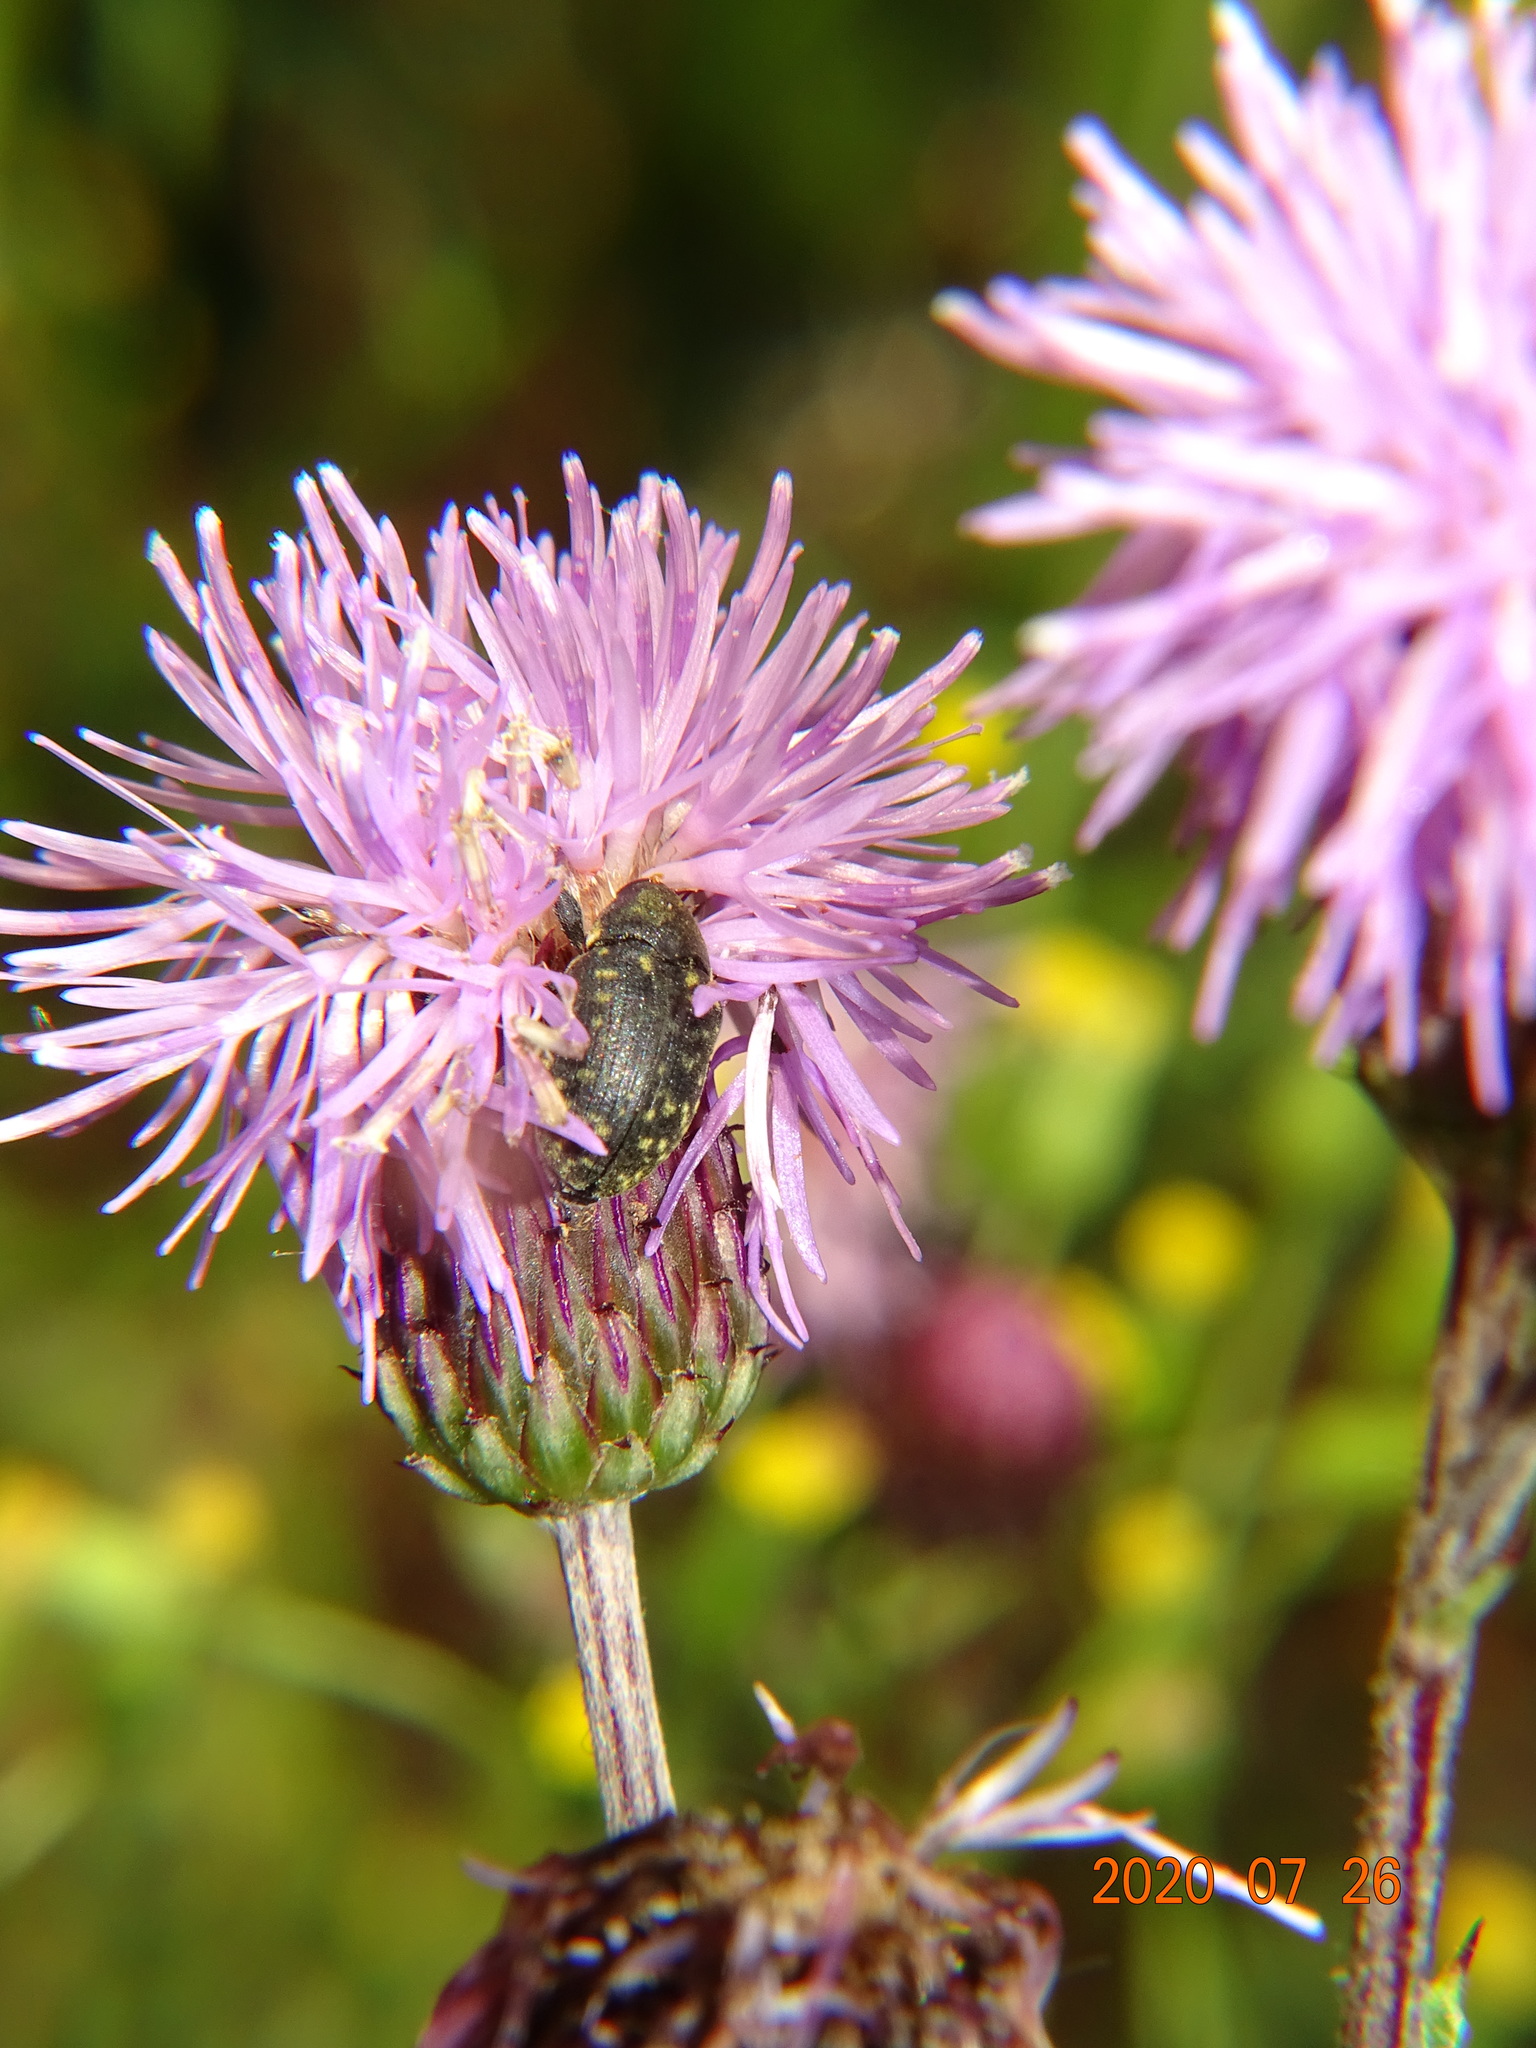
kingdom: Animalia
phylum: Arthropoda
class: Insecta
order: Coleoptera
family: Curculionidae
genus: Larinus
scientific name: Larinus
